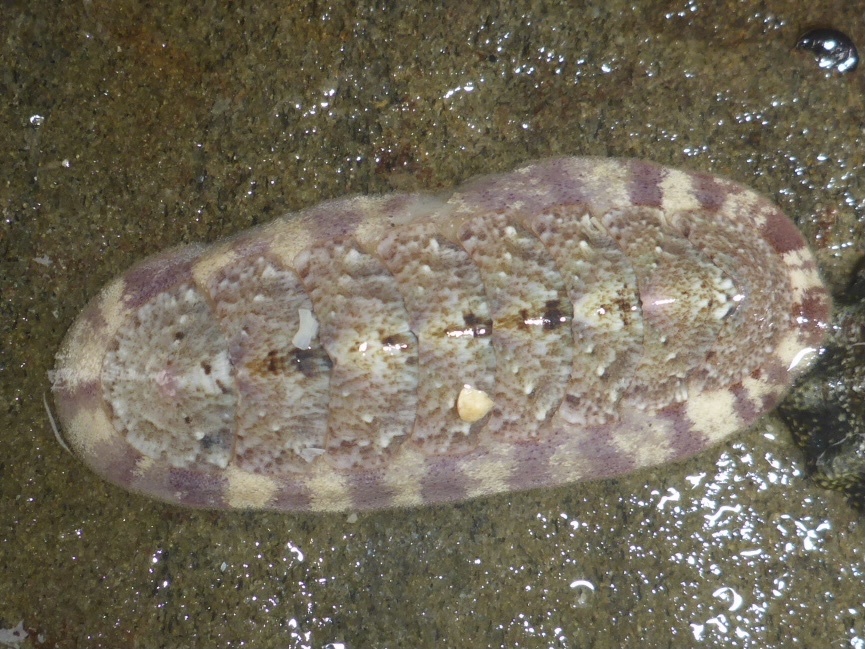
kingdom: Animalia
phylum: Mollusca
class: Polyplacophora
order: Chitonida
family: Ischnochitonidae
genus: Stenoplax
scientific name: Stenoplax heathiana
